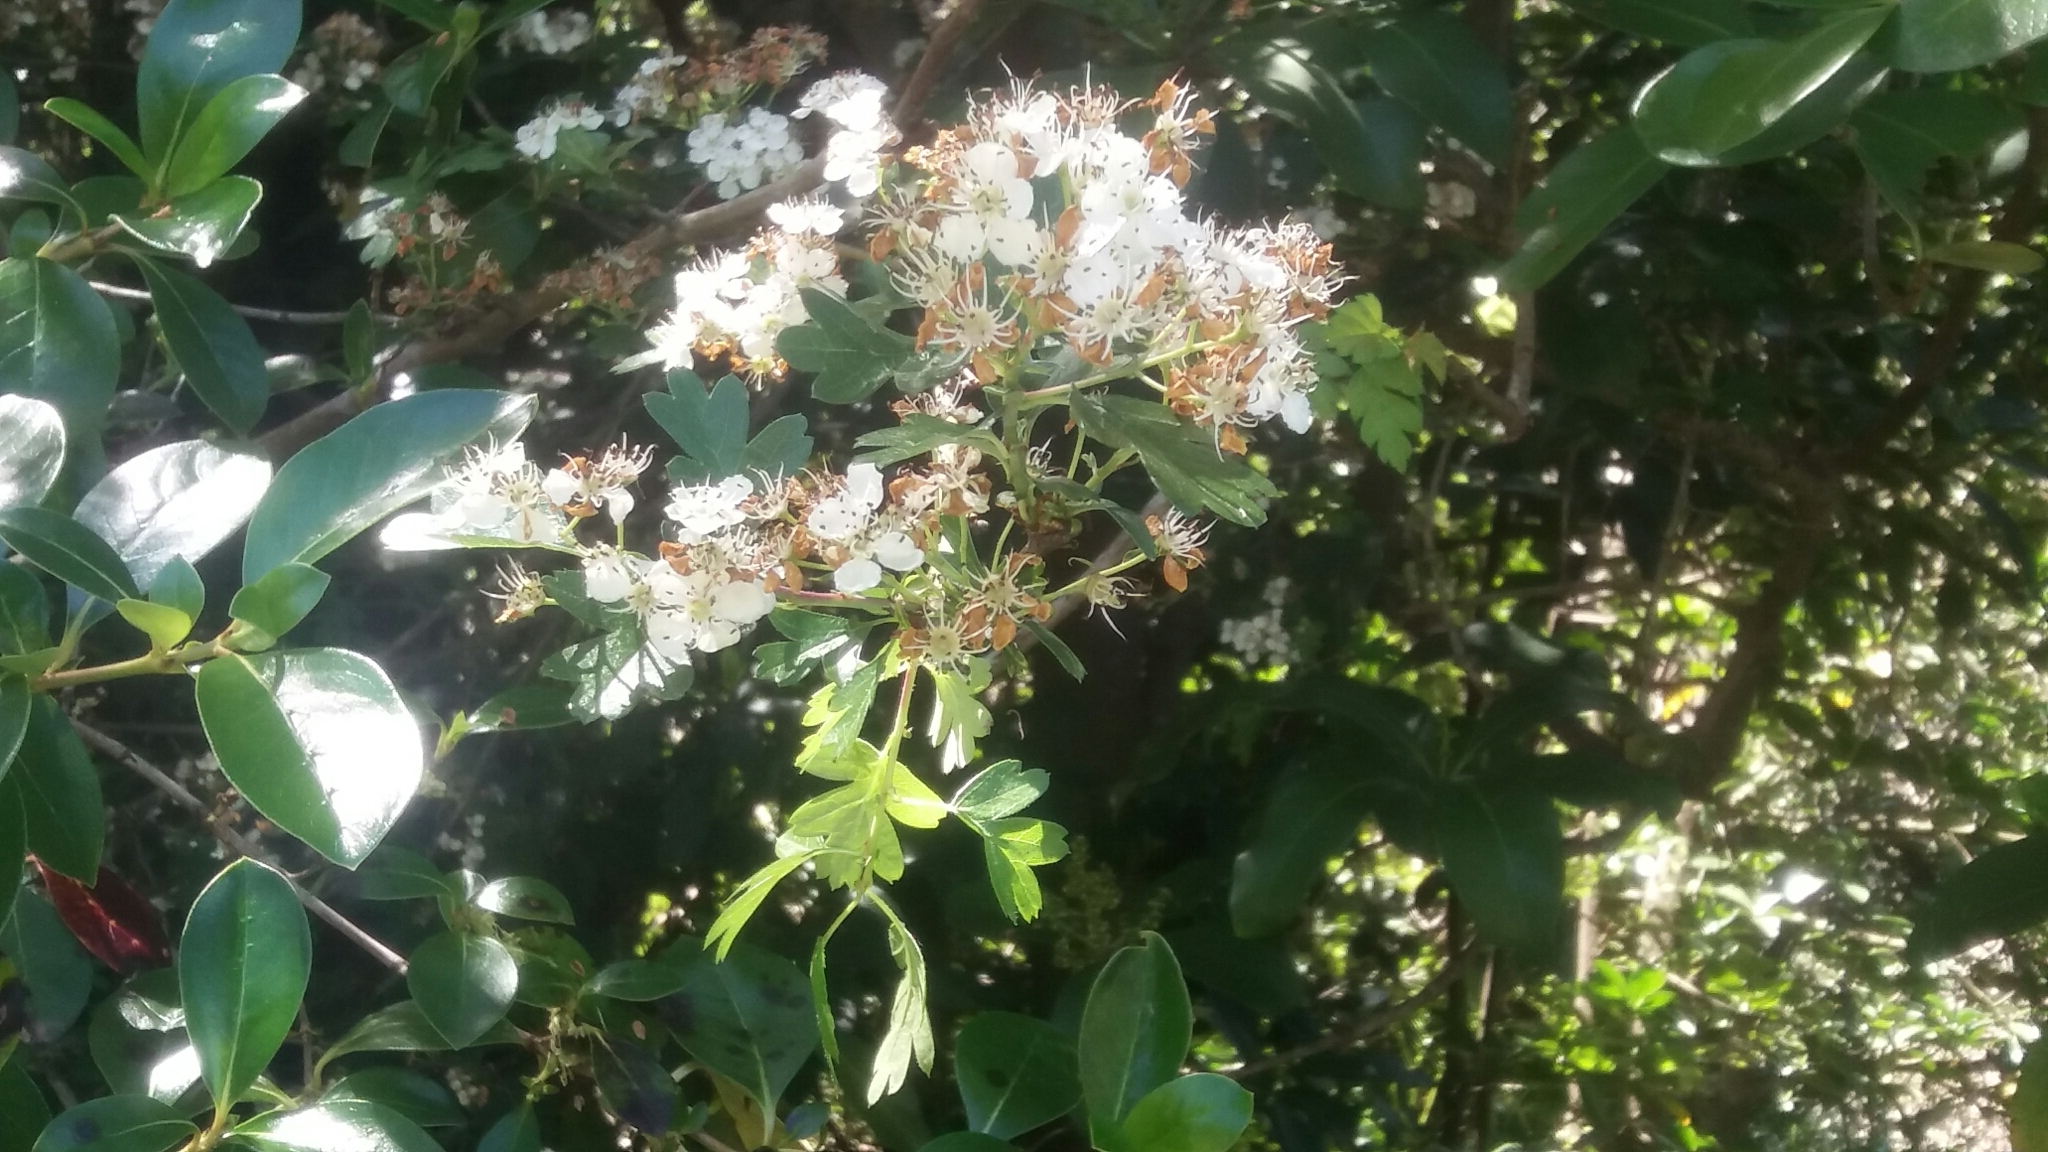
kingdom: Plantae
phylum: Tracheophyta
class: Magnoliopsida
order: Rosales
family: Rosaceae
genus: Crataegus
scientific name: Crataegus monogyna
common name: Hawthorn
